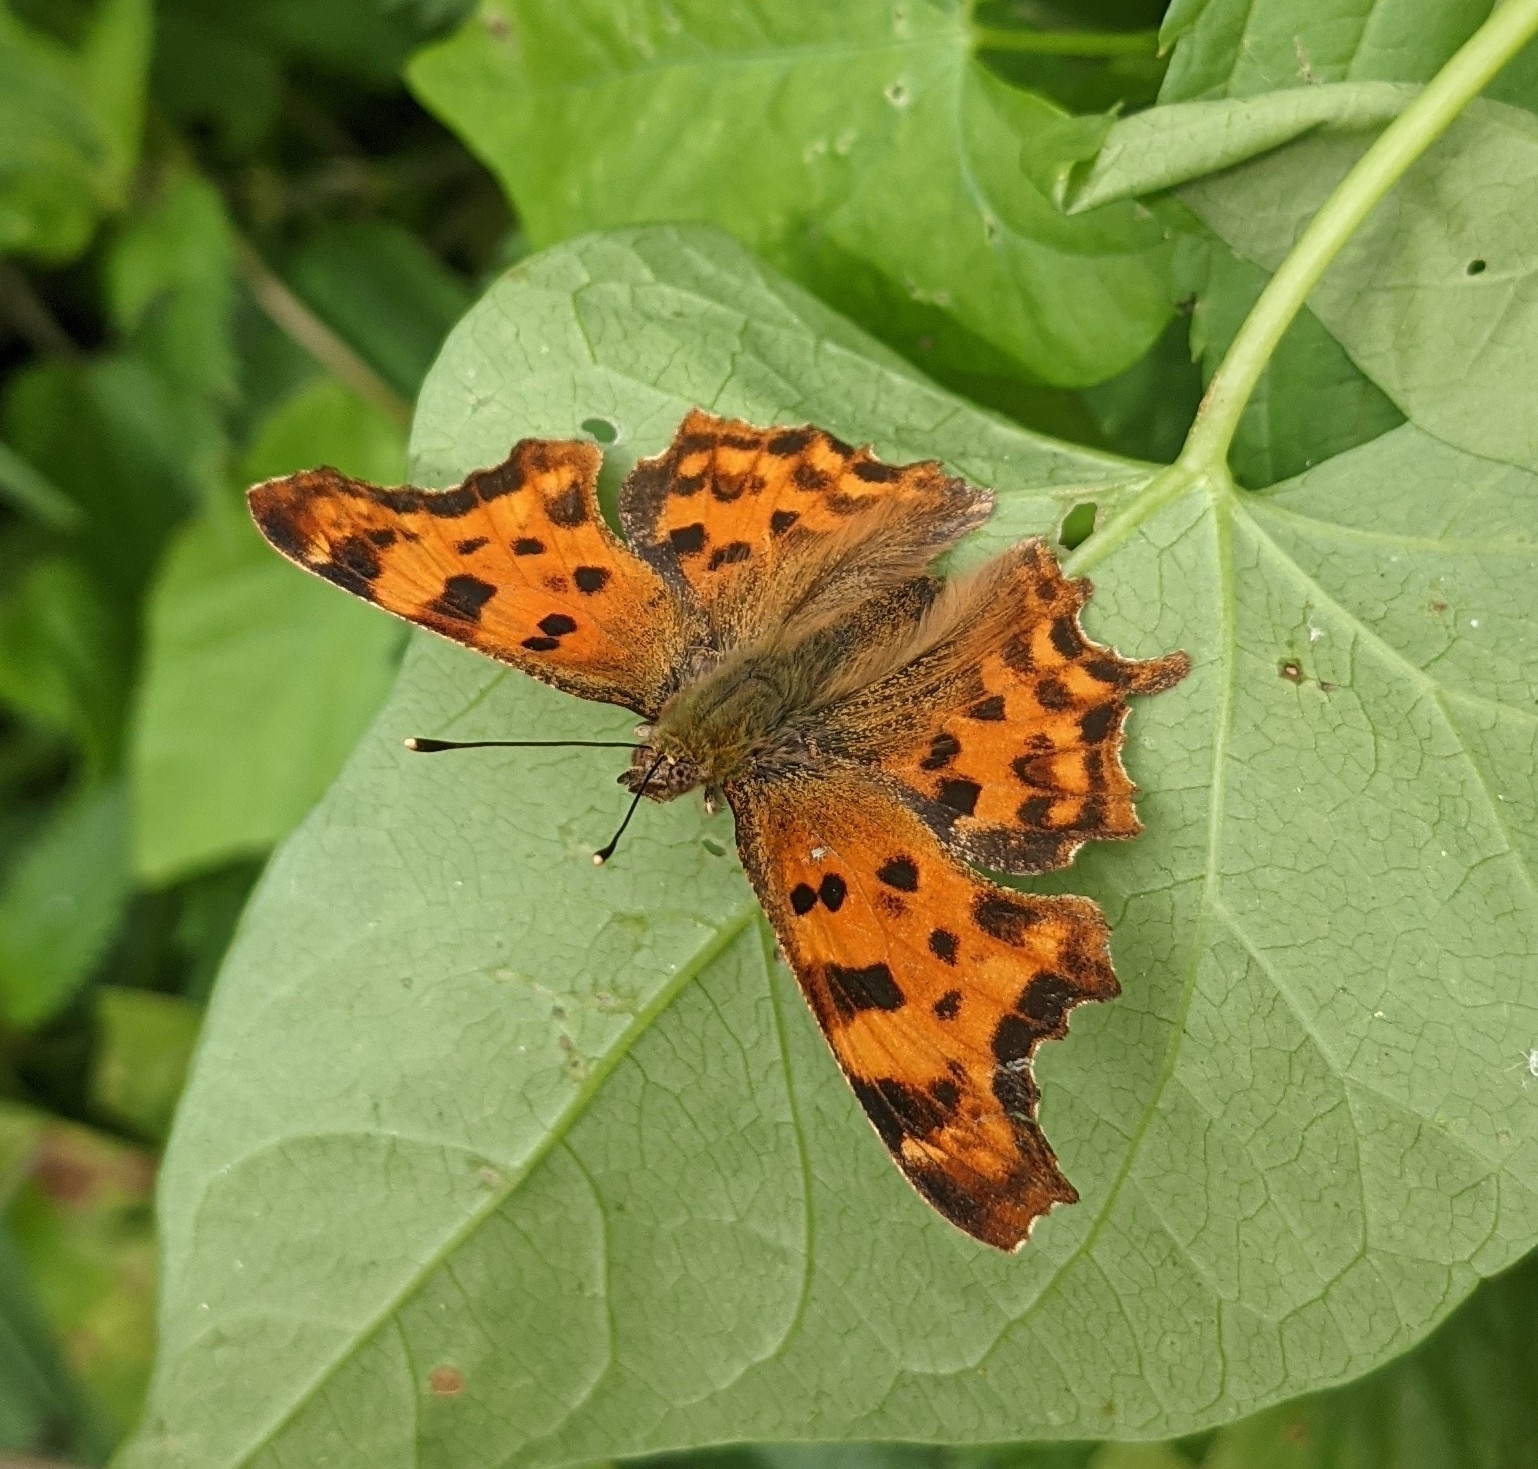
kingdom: Animalia
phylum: Arthropoda
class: Insecta
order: Lepidoptera
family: Nymphalidae
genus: Polygonia
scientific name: Polygonia c-album
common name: Comma
